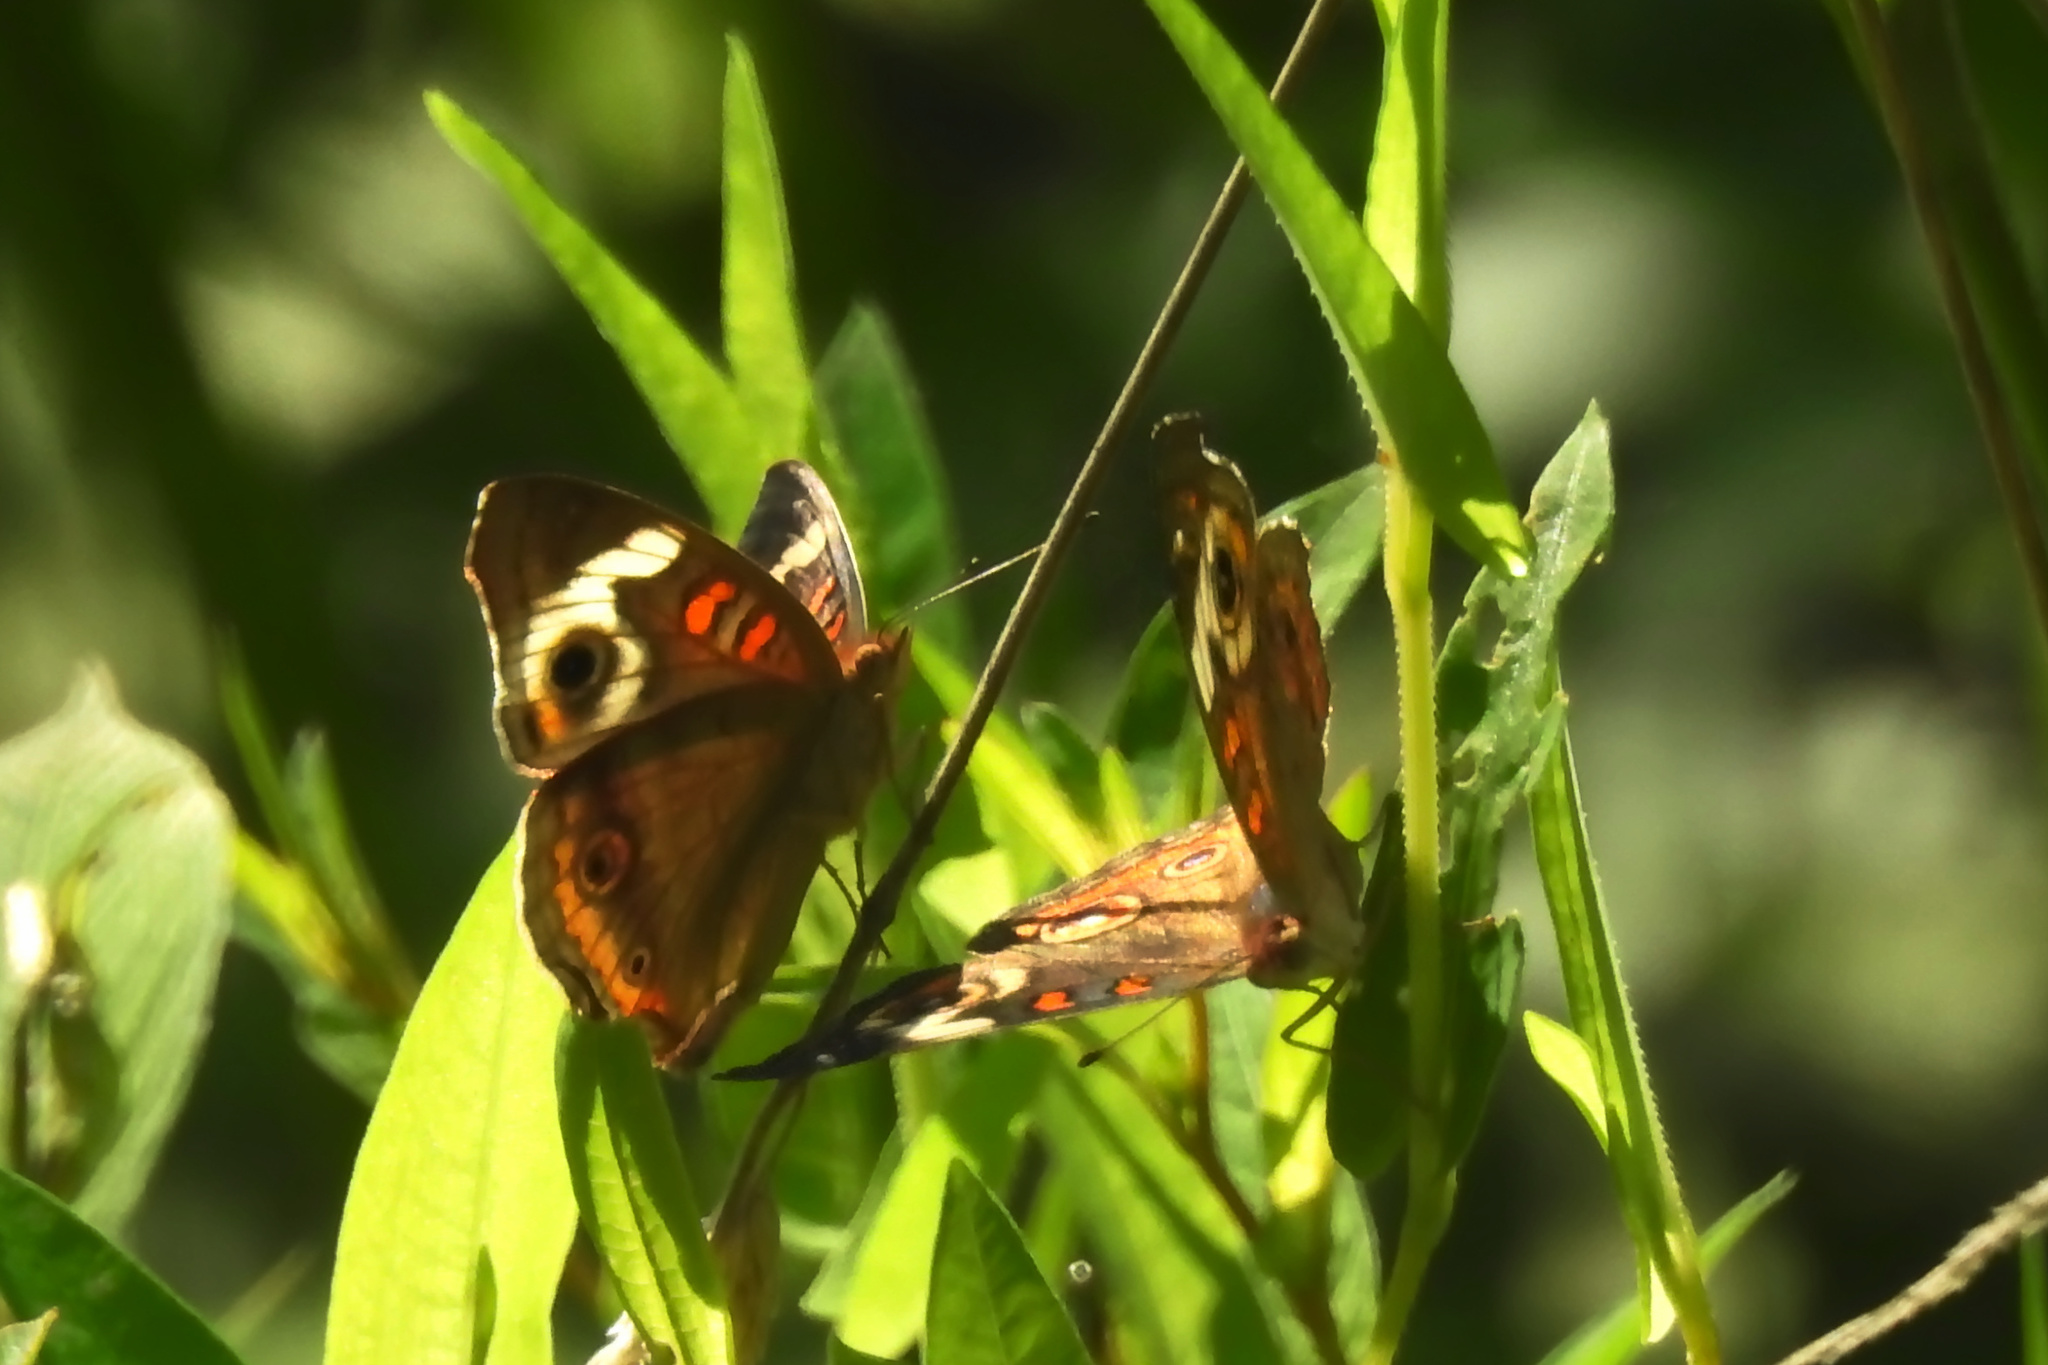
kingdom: Animalia
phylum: Arthropoda
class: Insecta
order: Lepidoptera
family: Nymphalidae
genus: Junonia
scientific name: Junonia coenia
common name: Common buckeye
